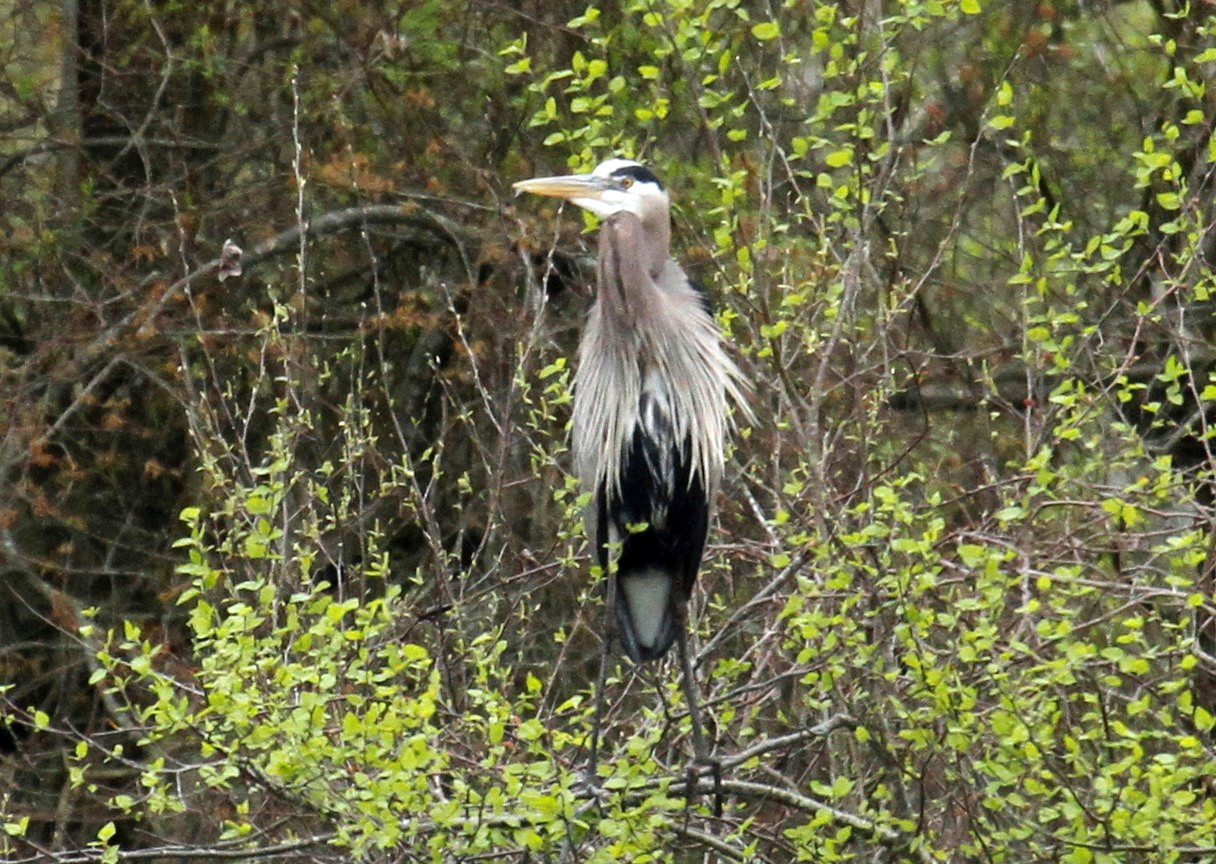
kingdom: Animalia
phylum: Chordata
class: Aves
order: Pelecaniformes
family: Ardeidae
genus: Ardea
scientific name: Ardea herodias
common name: Great blue heron
